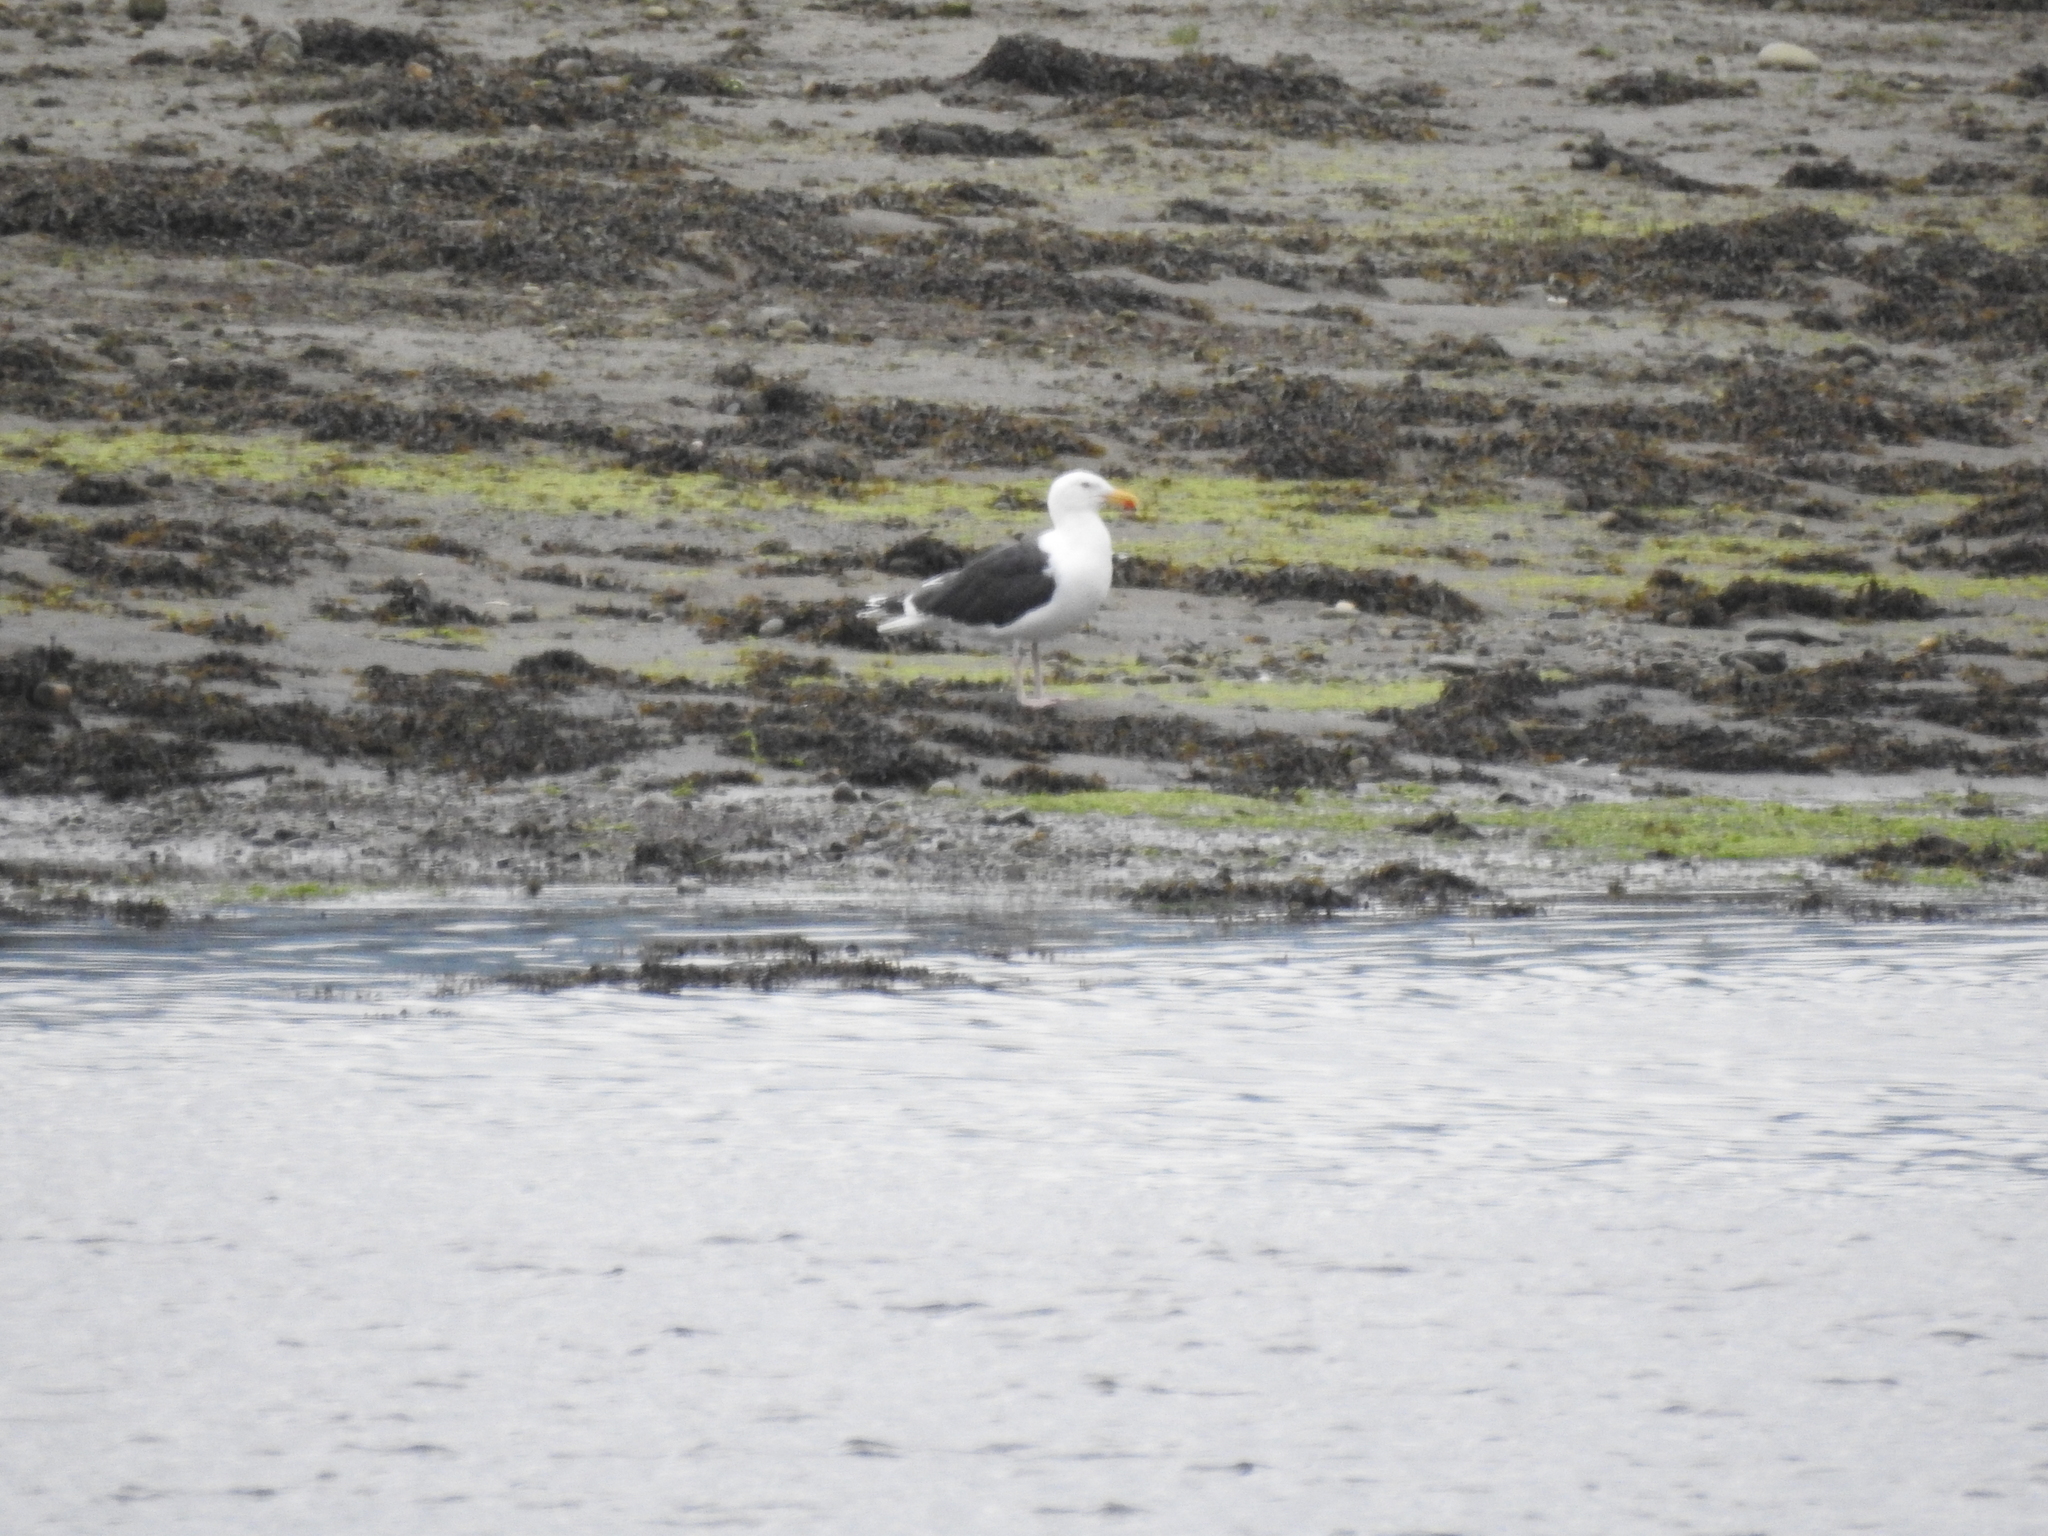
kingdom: Animalia
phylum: Chordata
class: Aves
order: Charadriiformes
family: Laridae
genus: Larus
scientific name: Larus marinus
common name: Great black-backed gull
